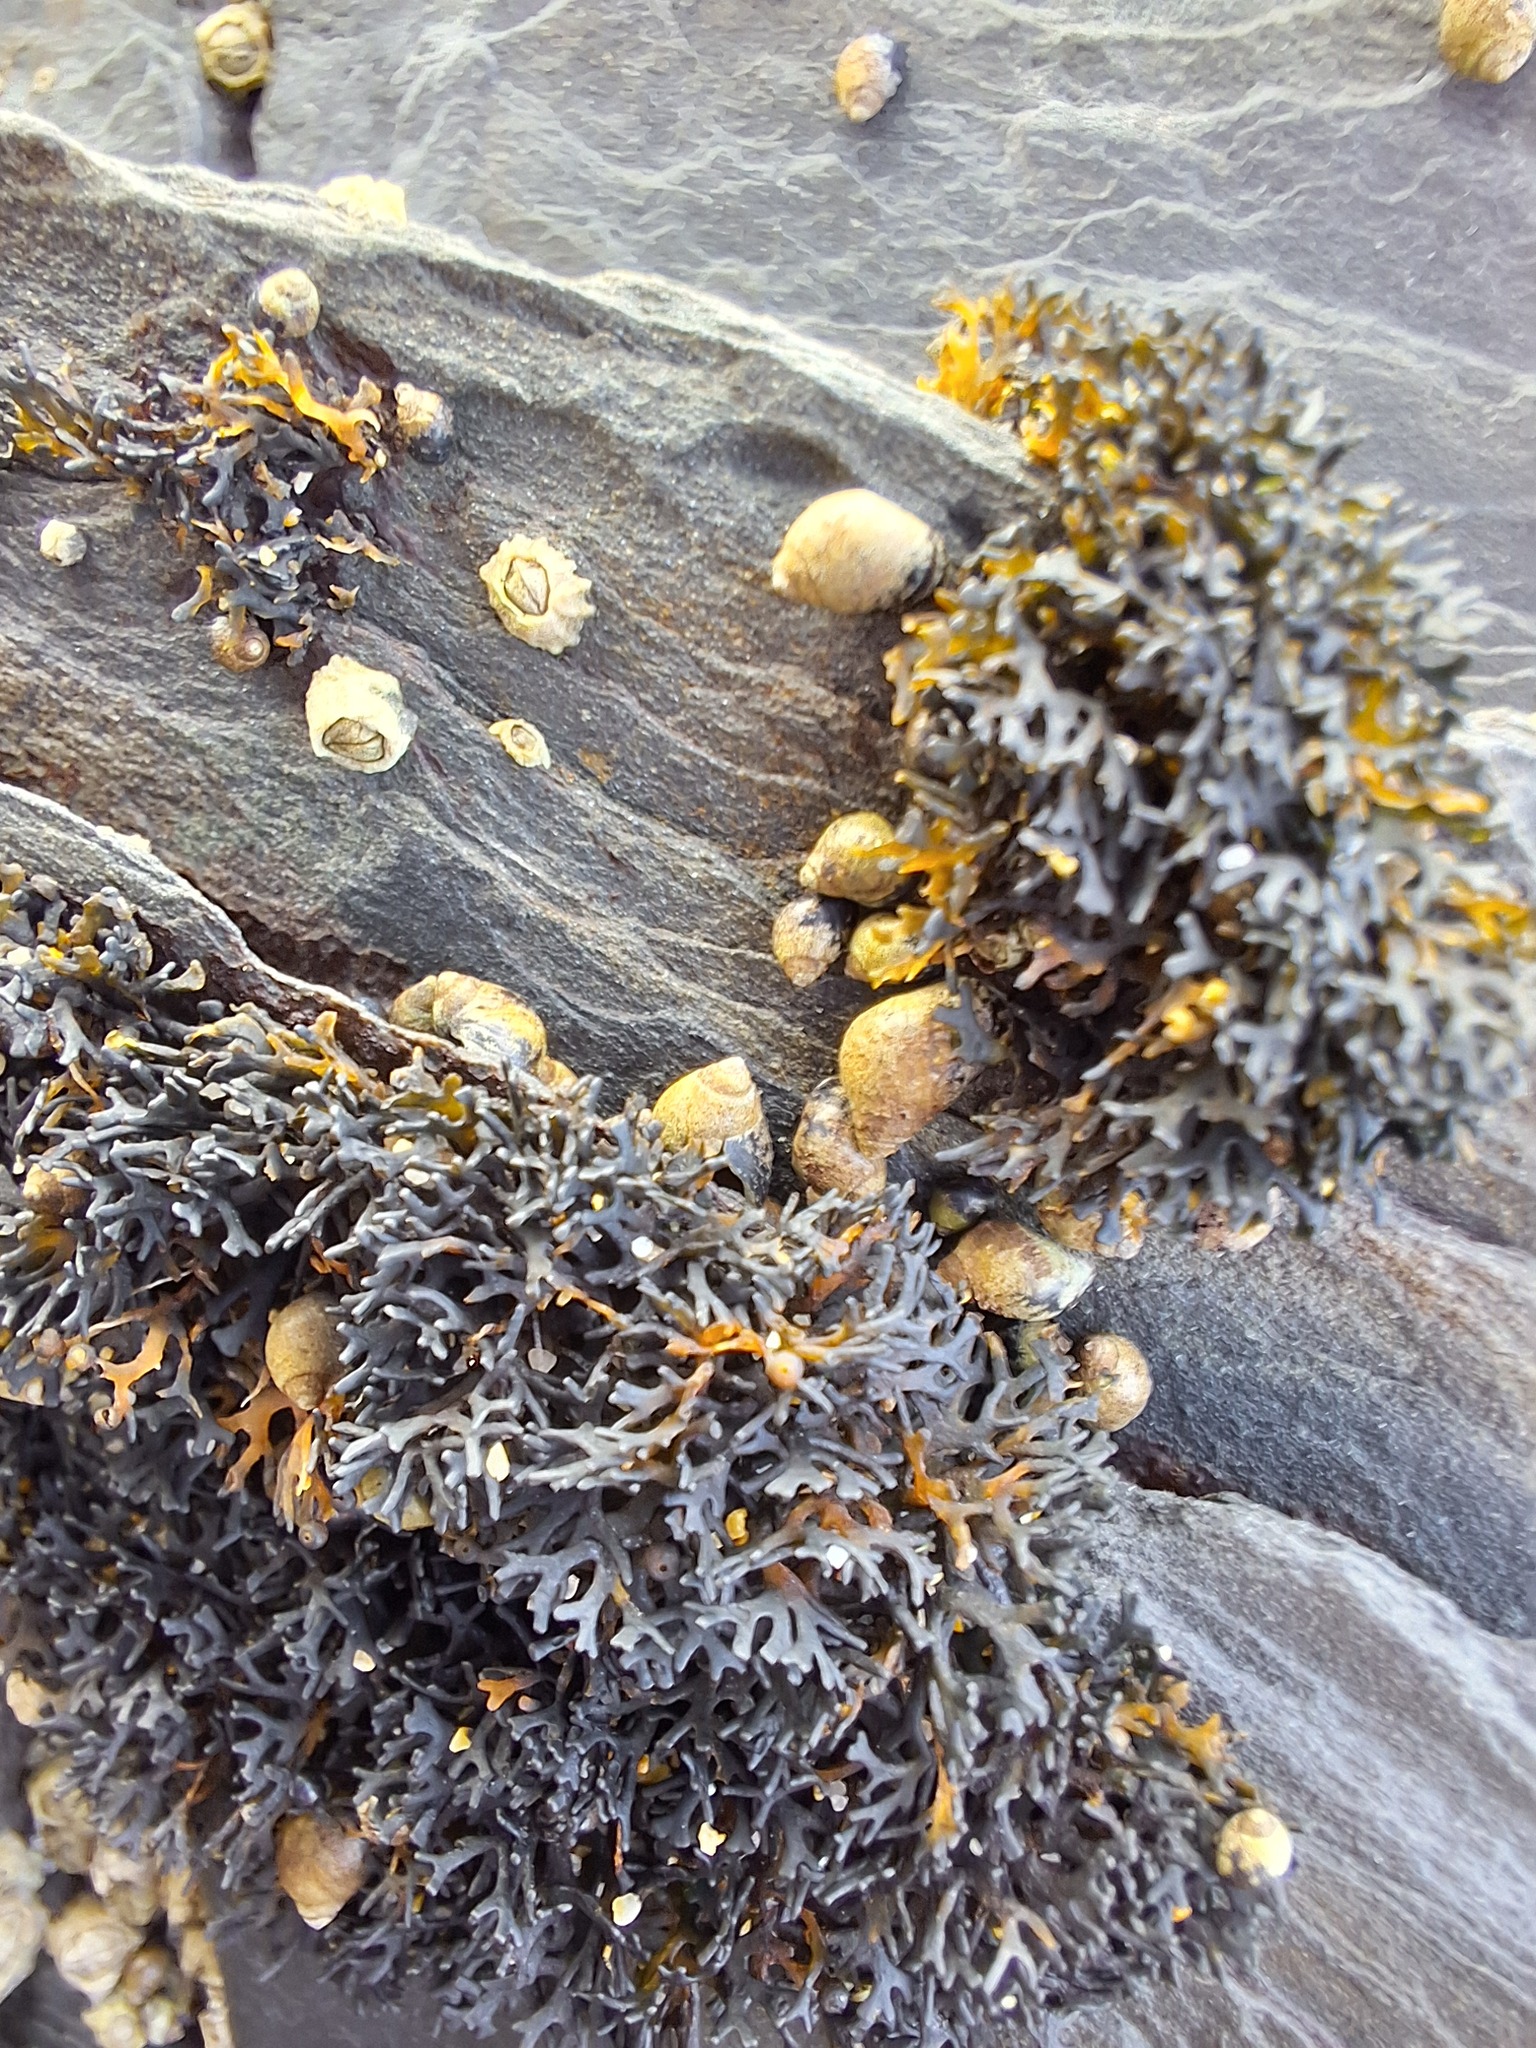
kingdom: Animalia
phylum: Mollusca
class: Gastropoda
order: Littorinimorpha
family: Littorinidae
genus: Melarhaphe
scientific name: Melarhaphe neritoides
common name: Small periwinkle
